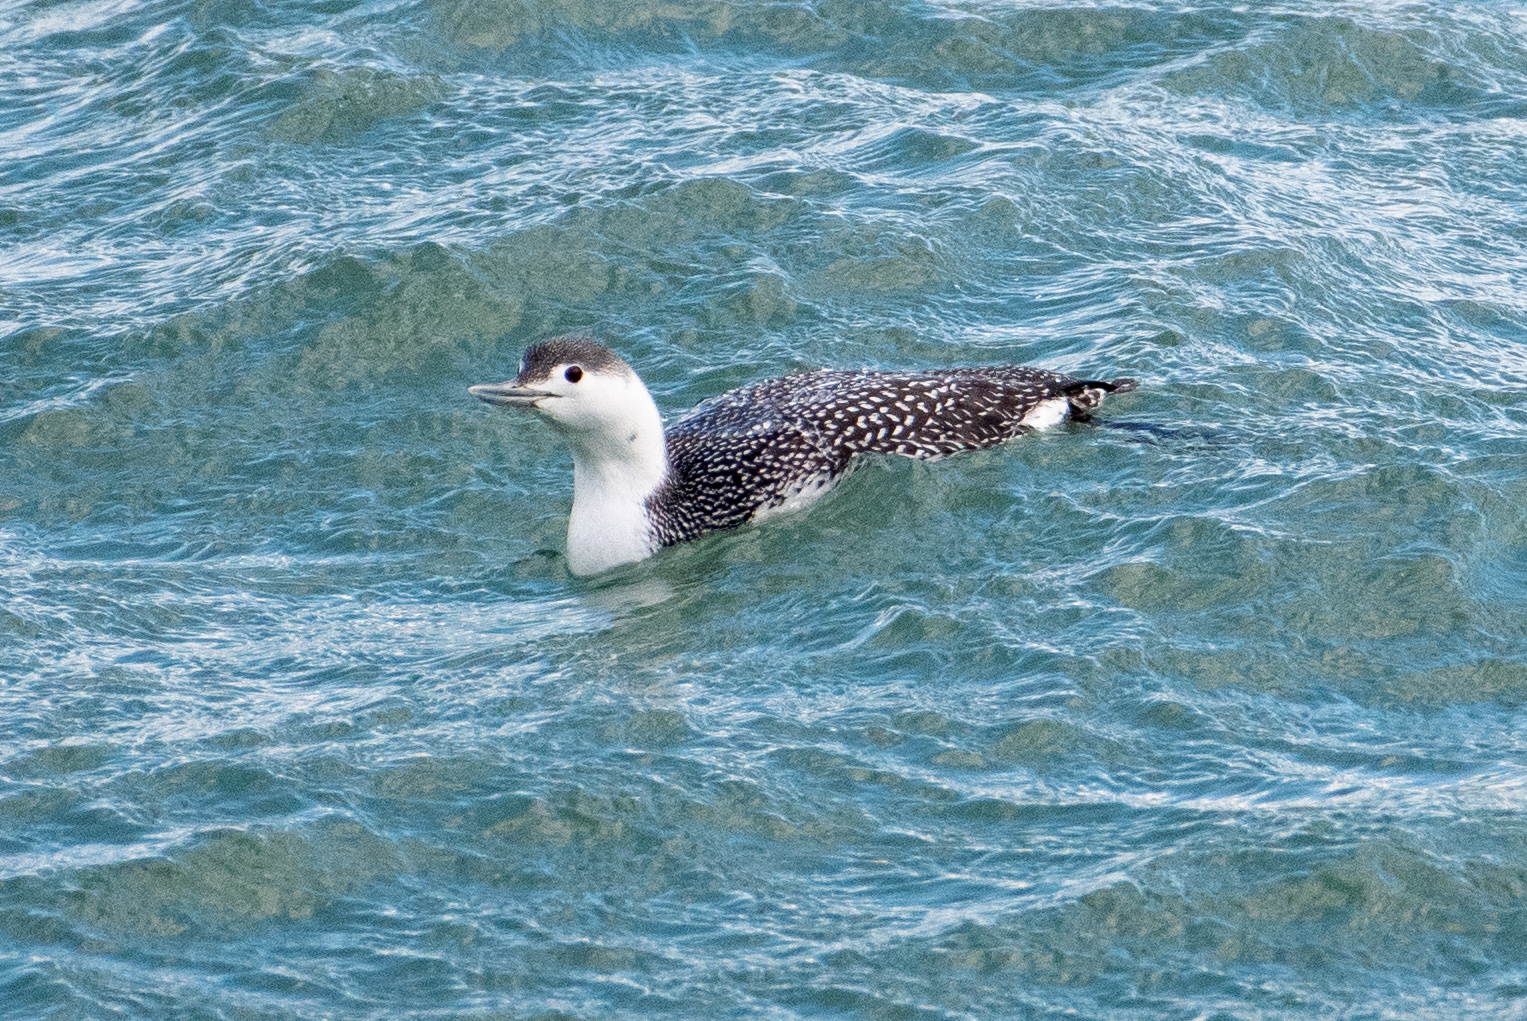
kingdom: Animalia
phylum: Chordata
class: Aves
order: Gaviiformes
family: Gaviidae
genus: Gavia
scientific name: Gavia stellata
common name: Red-throated loon
